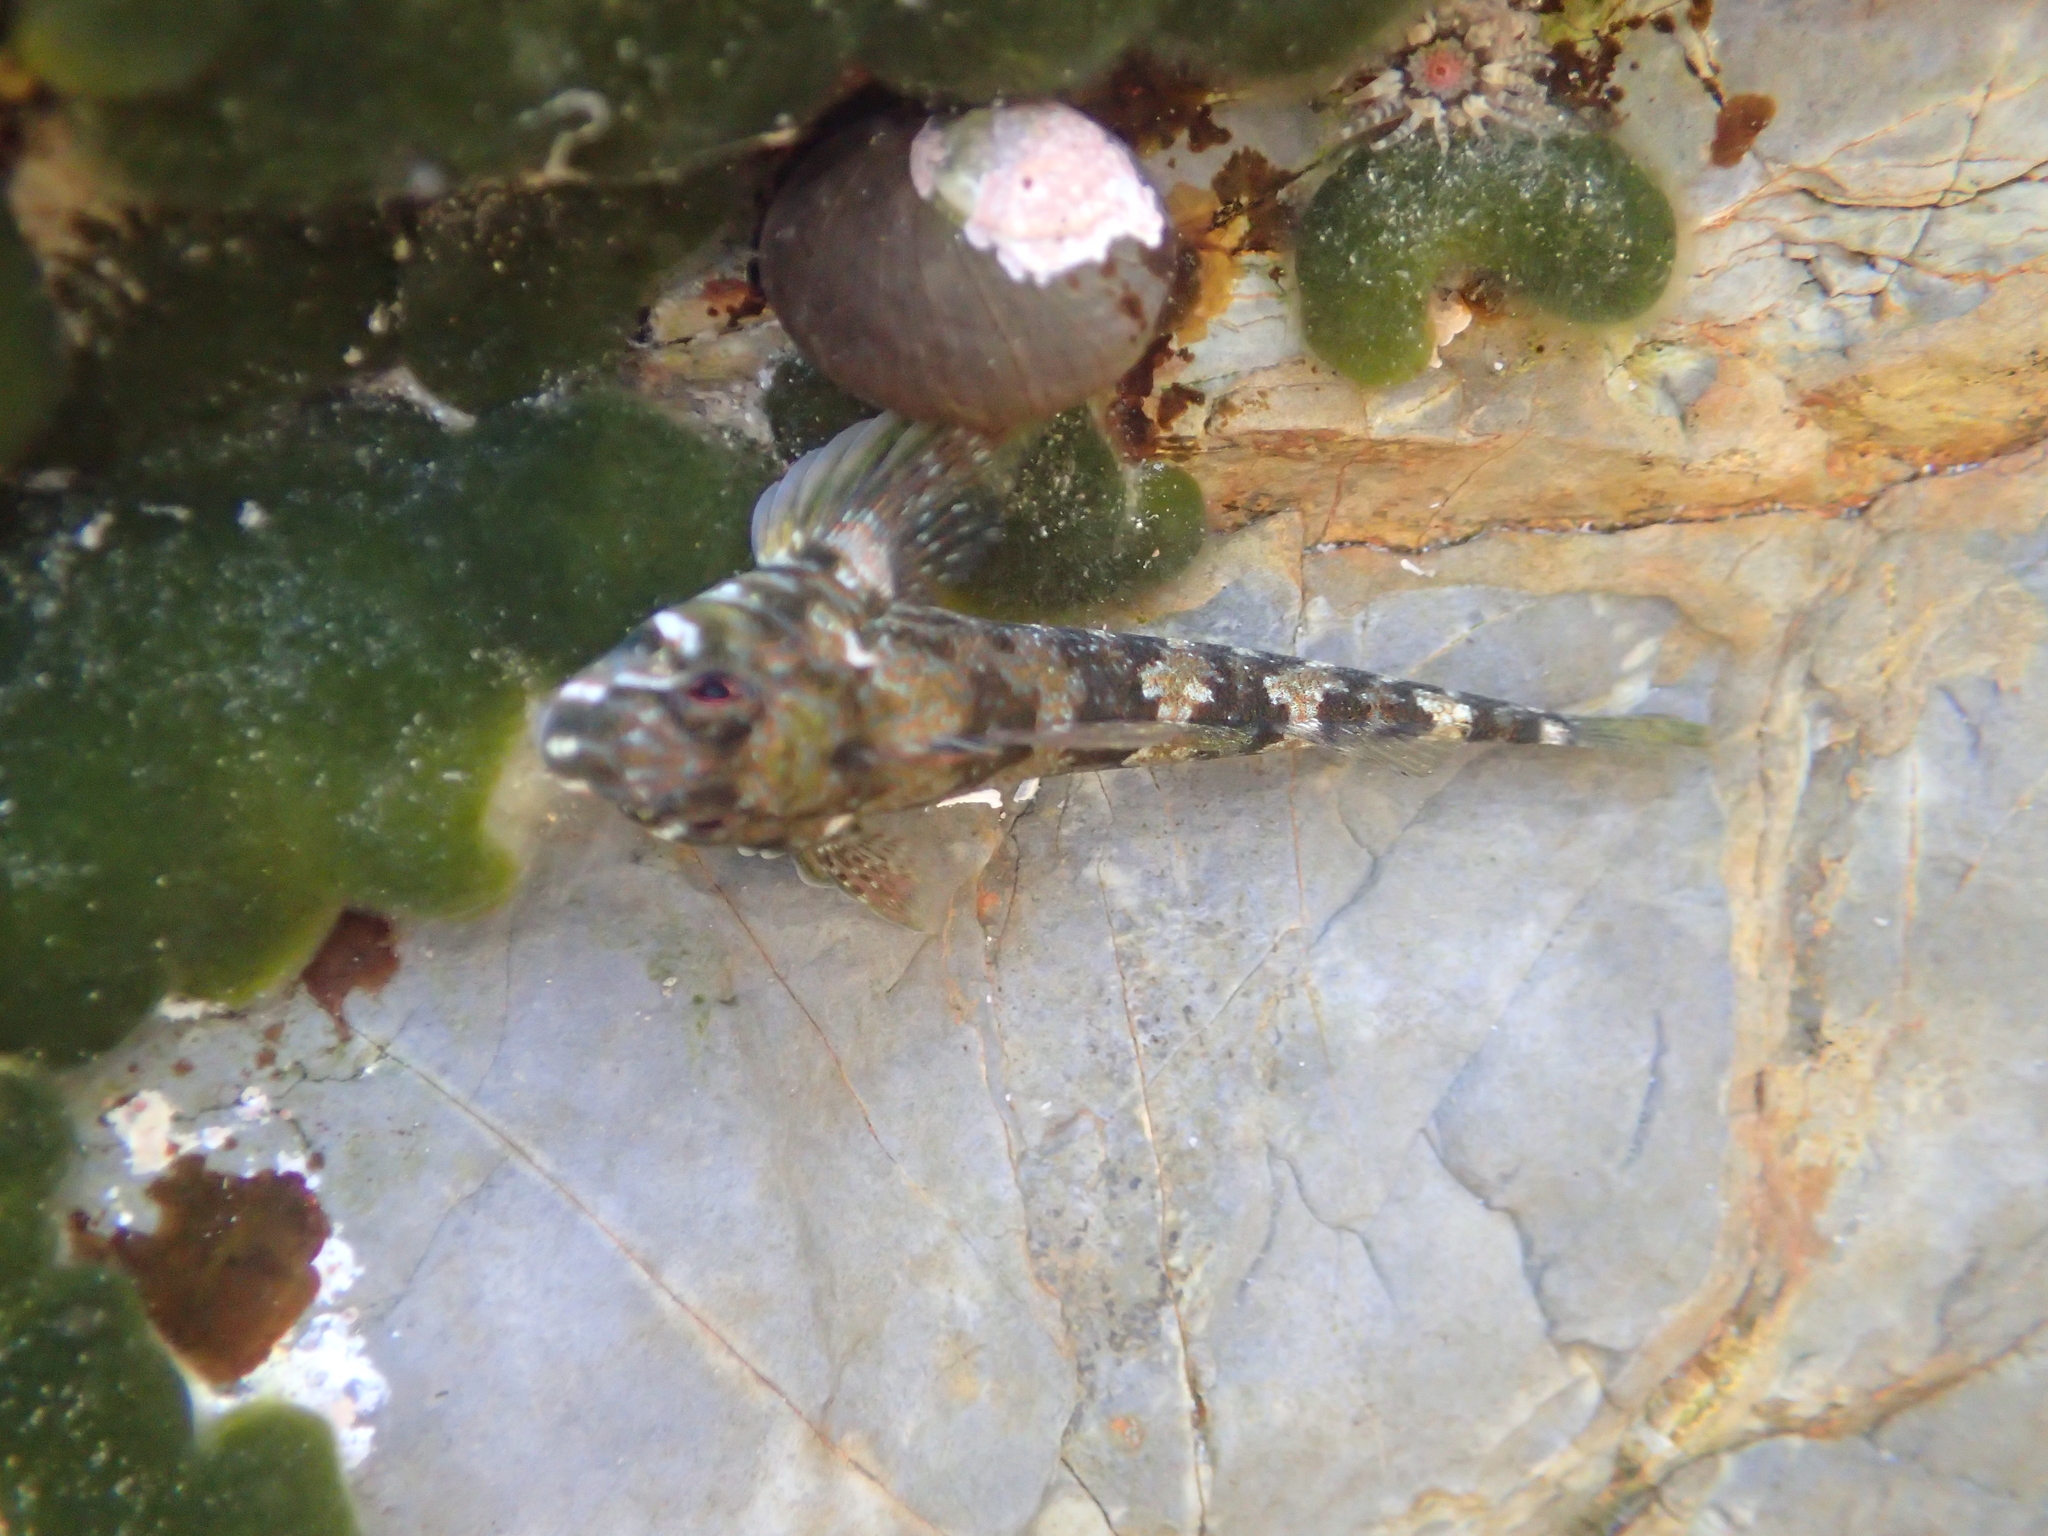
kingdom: Animalia
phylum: Chordata
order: Perciformes
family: Tripterygiidae
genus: Bellapiscis
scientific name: Bellapiscis lesleyae
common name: Mottled twister
